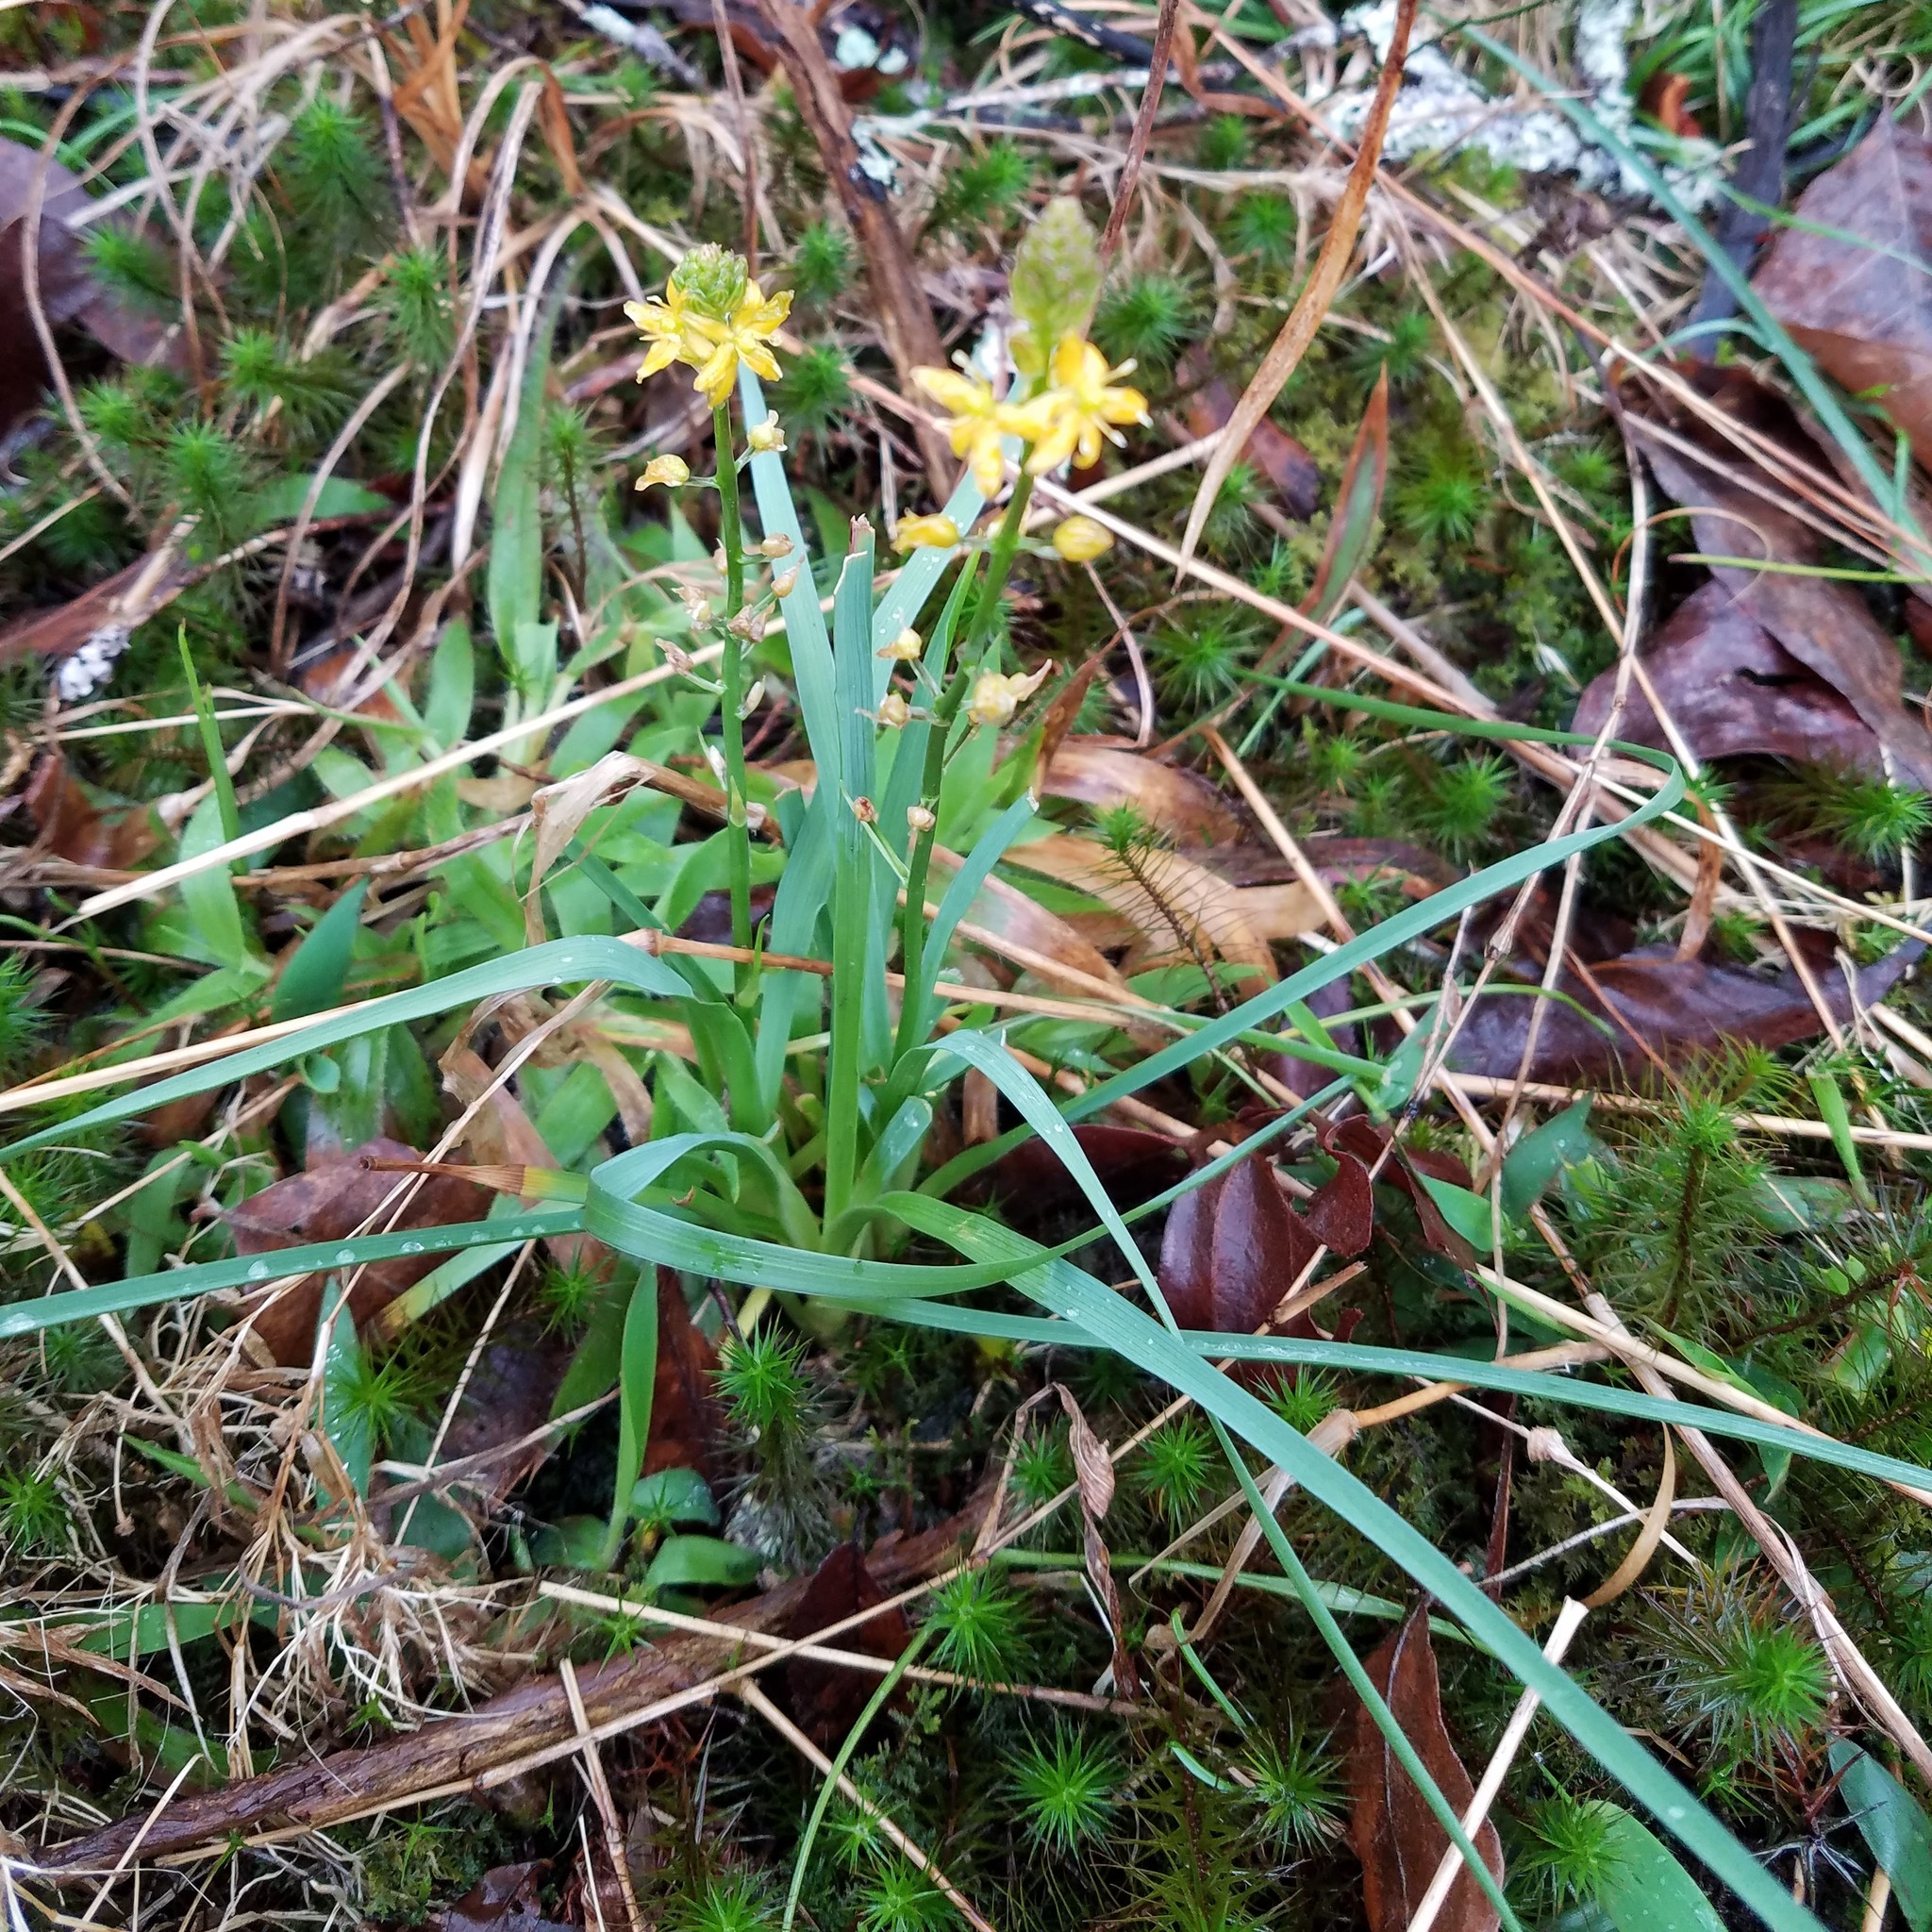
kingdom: Plantae
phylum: Tracheophyta
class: Liliopsida
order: Asparagales
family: Asparagaceae
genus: Schoenolirion
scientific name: Schoenolirion croceum
